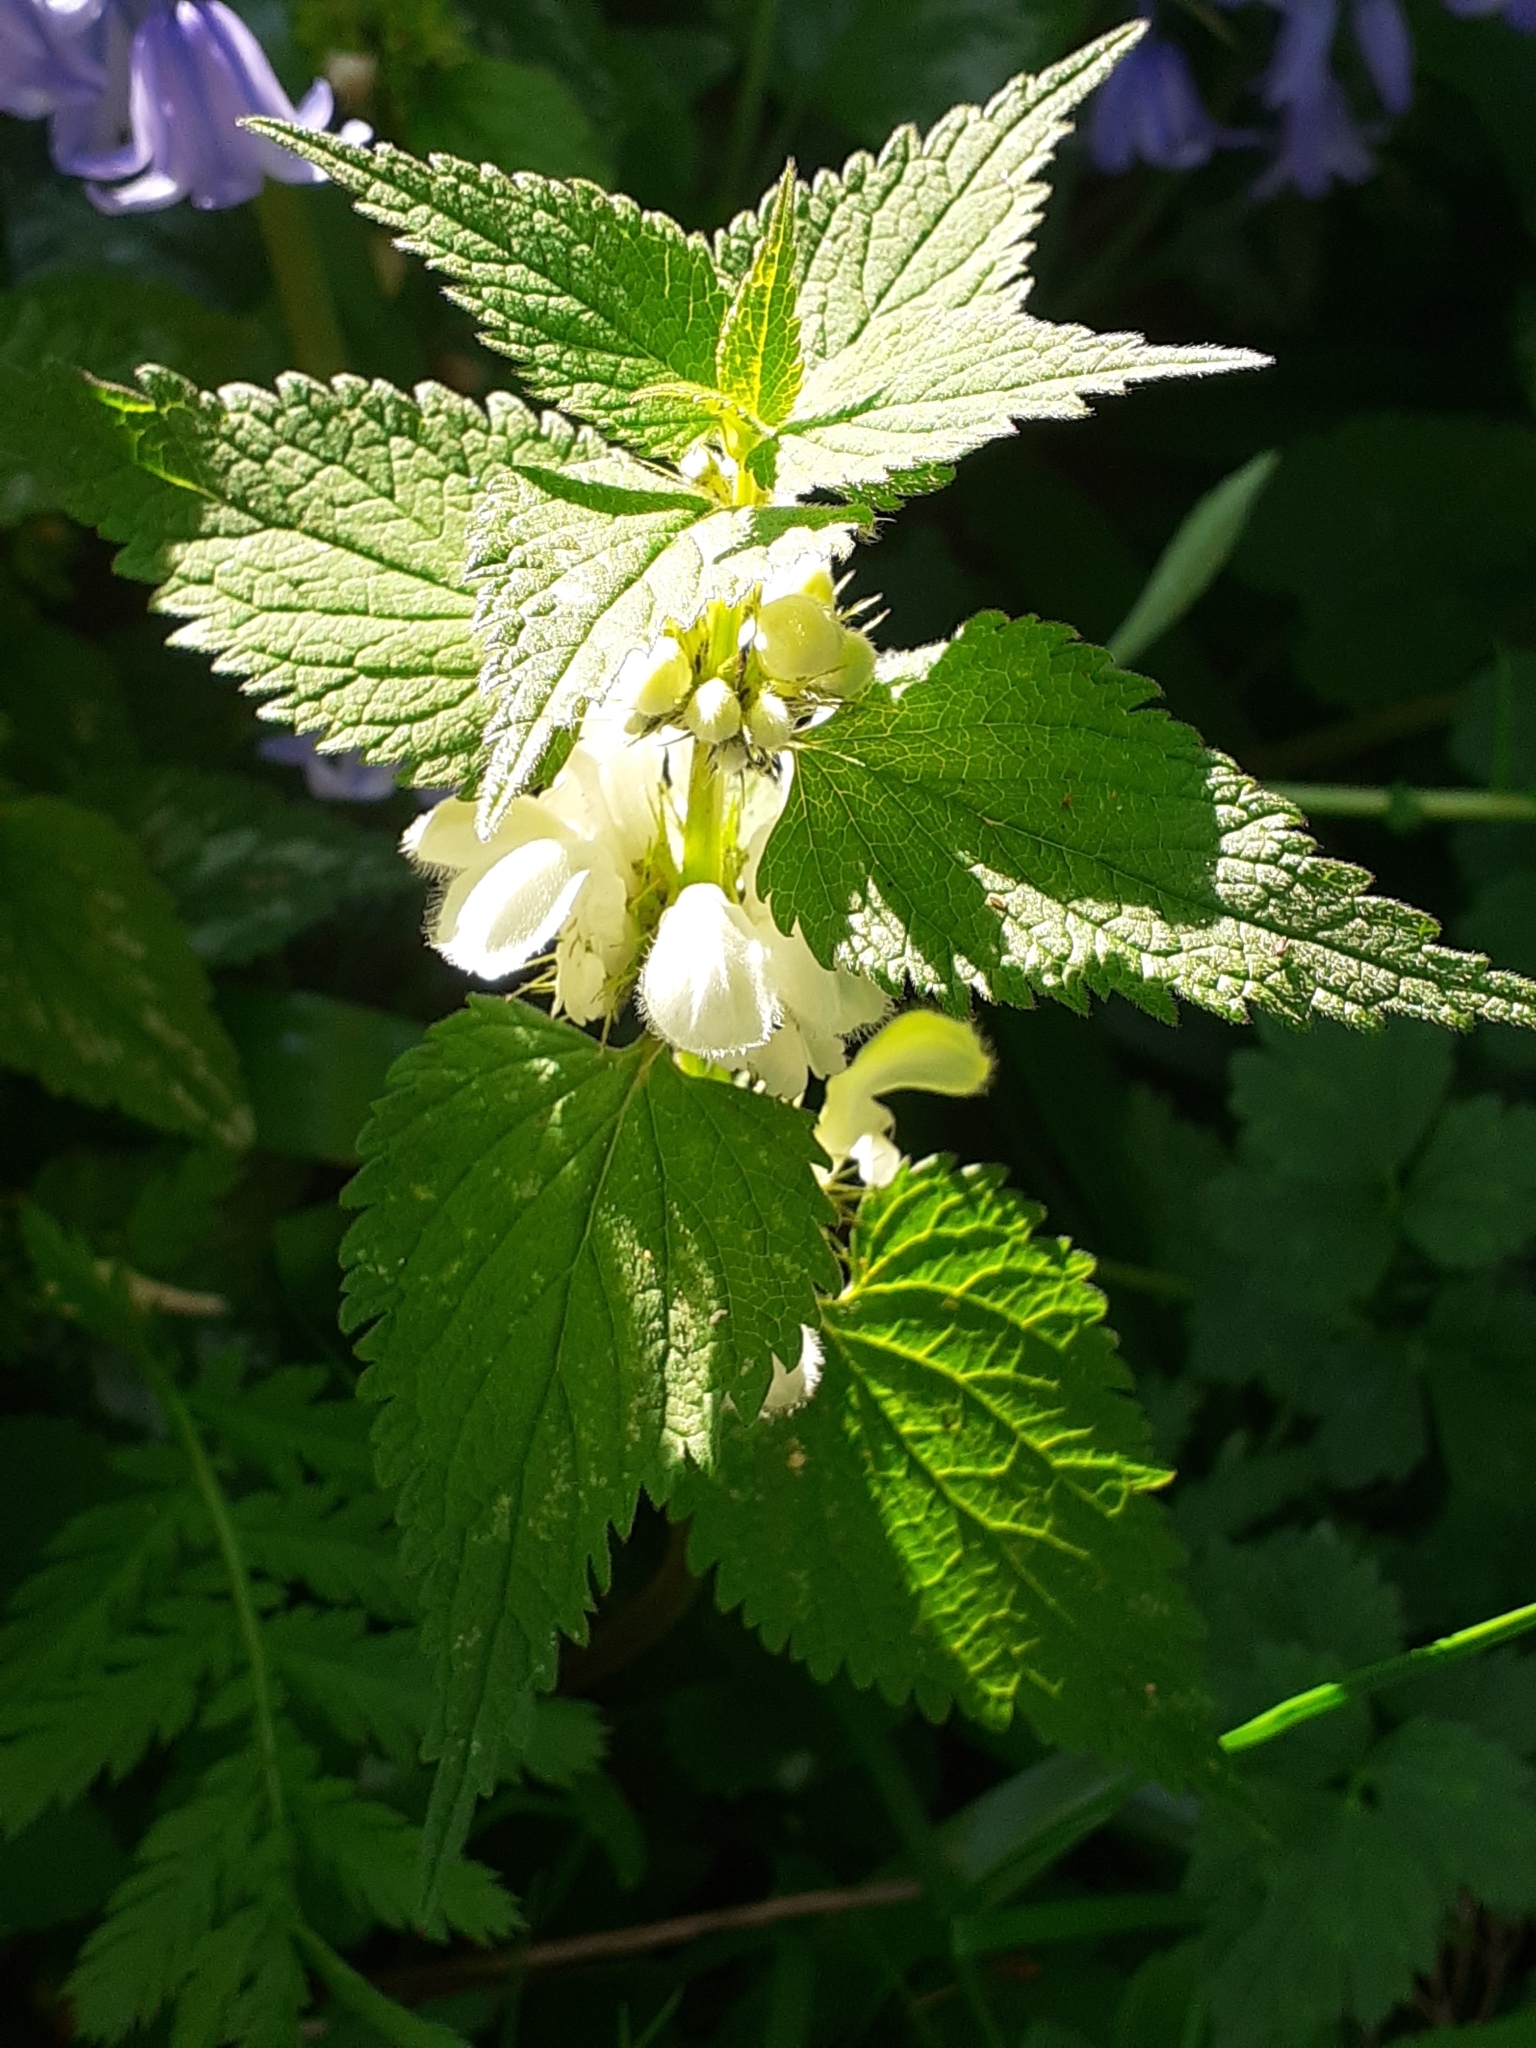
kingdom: Plantae
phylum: Tracheophyta
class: Magnoliopsida
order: Lamiales
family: Lamiaceae
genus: Lamium
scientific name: Lamium album
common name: White dead-nettle
